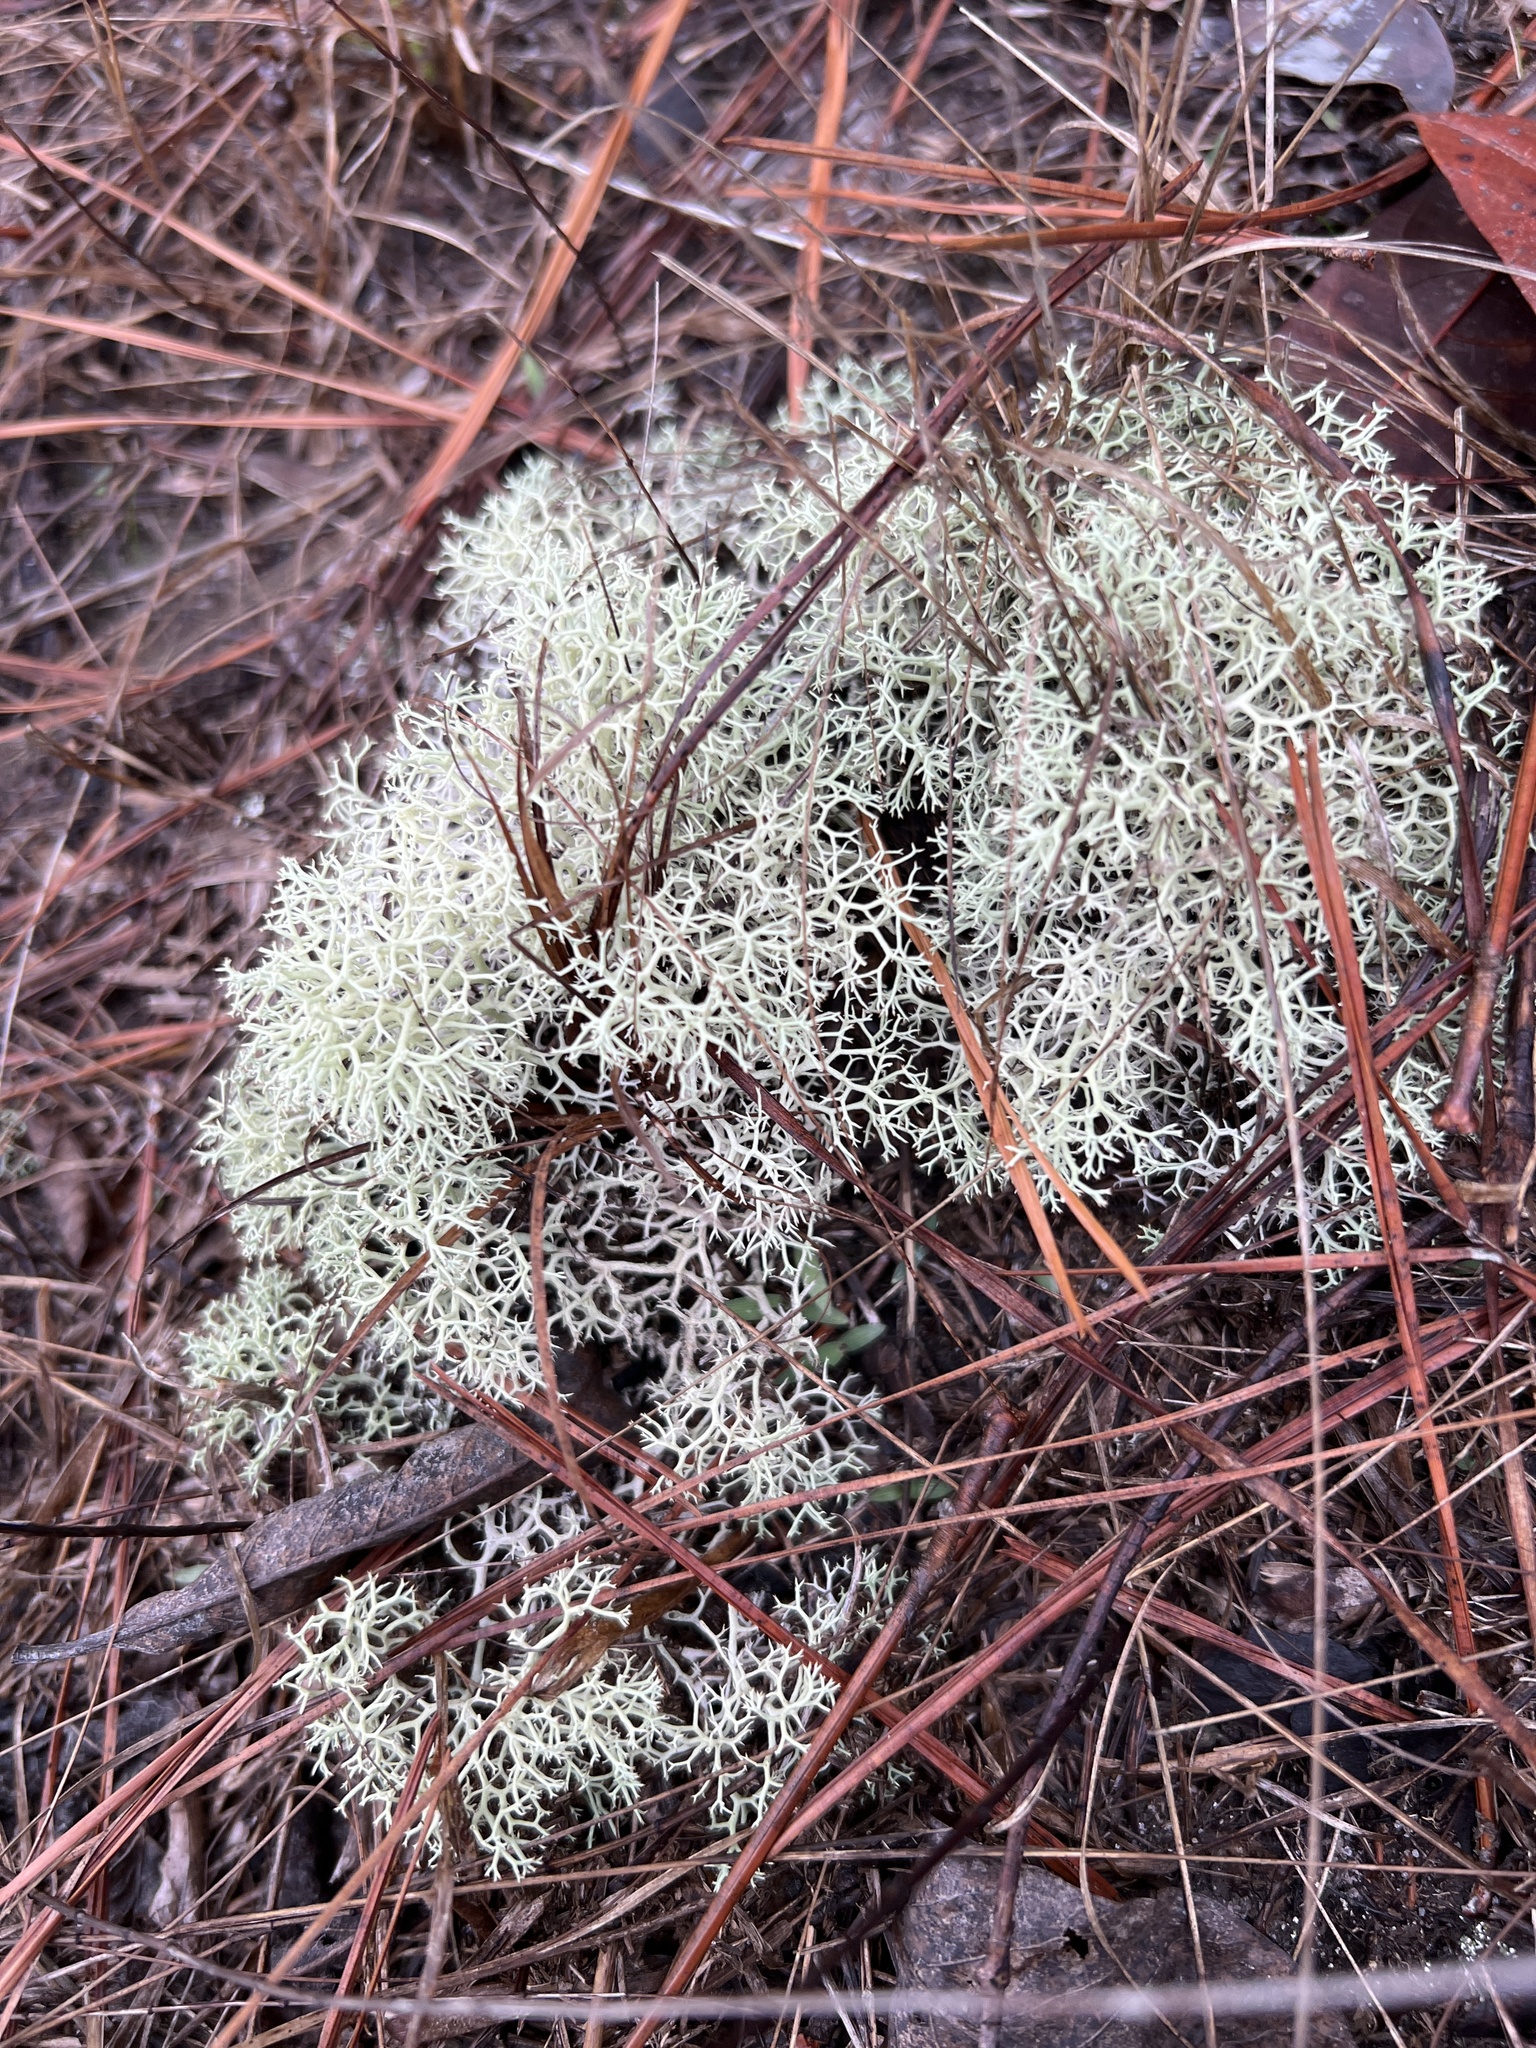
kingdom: Fungi
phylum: Ascomycota
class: Lecanoromycetes
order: Lecanorales
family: Cladoniaceae
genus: Cladonia
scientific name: Cladonia subtenuis
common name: Dixie reindeer lichen
